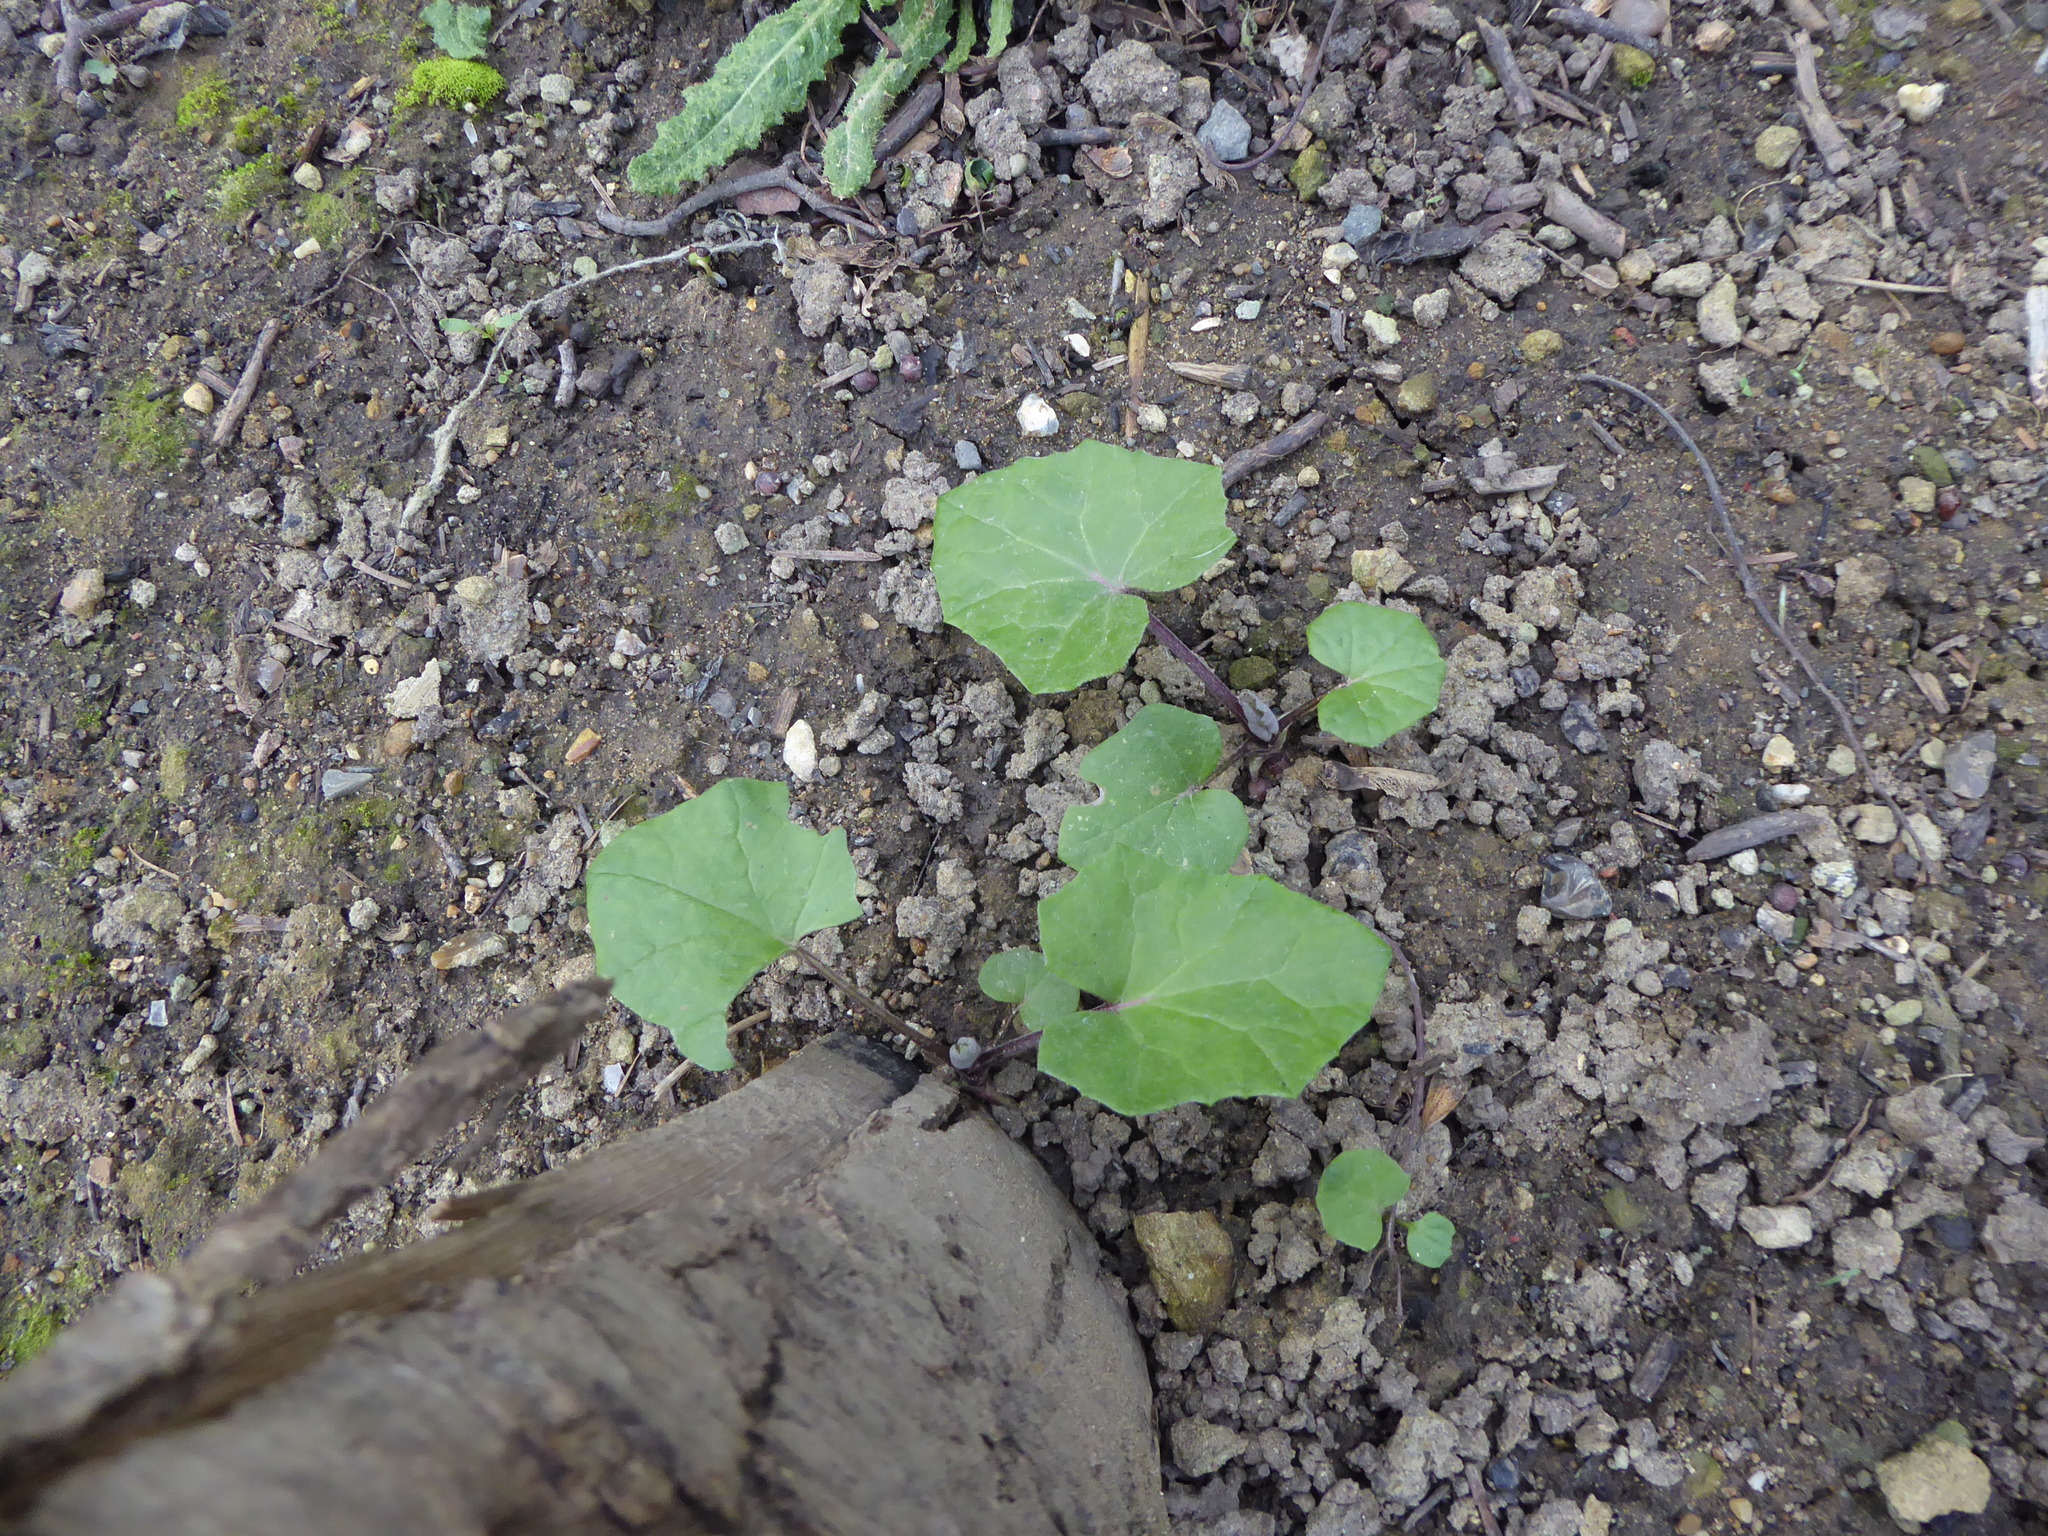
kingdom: Plantae
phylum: Tracheophyta
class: Magnoliopsida
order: Asterales
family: Asteraceae
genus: Tussilago
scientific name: Tussilago farfara
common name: Coltsfoot
